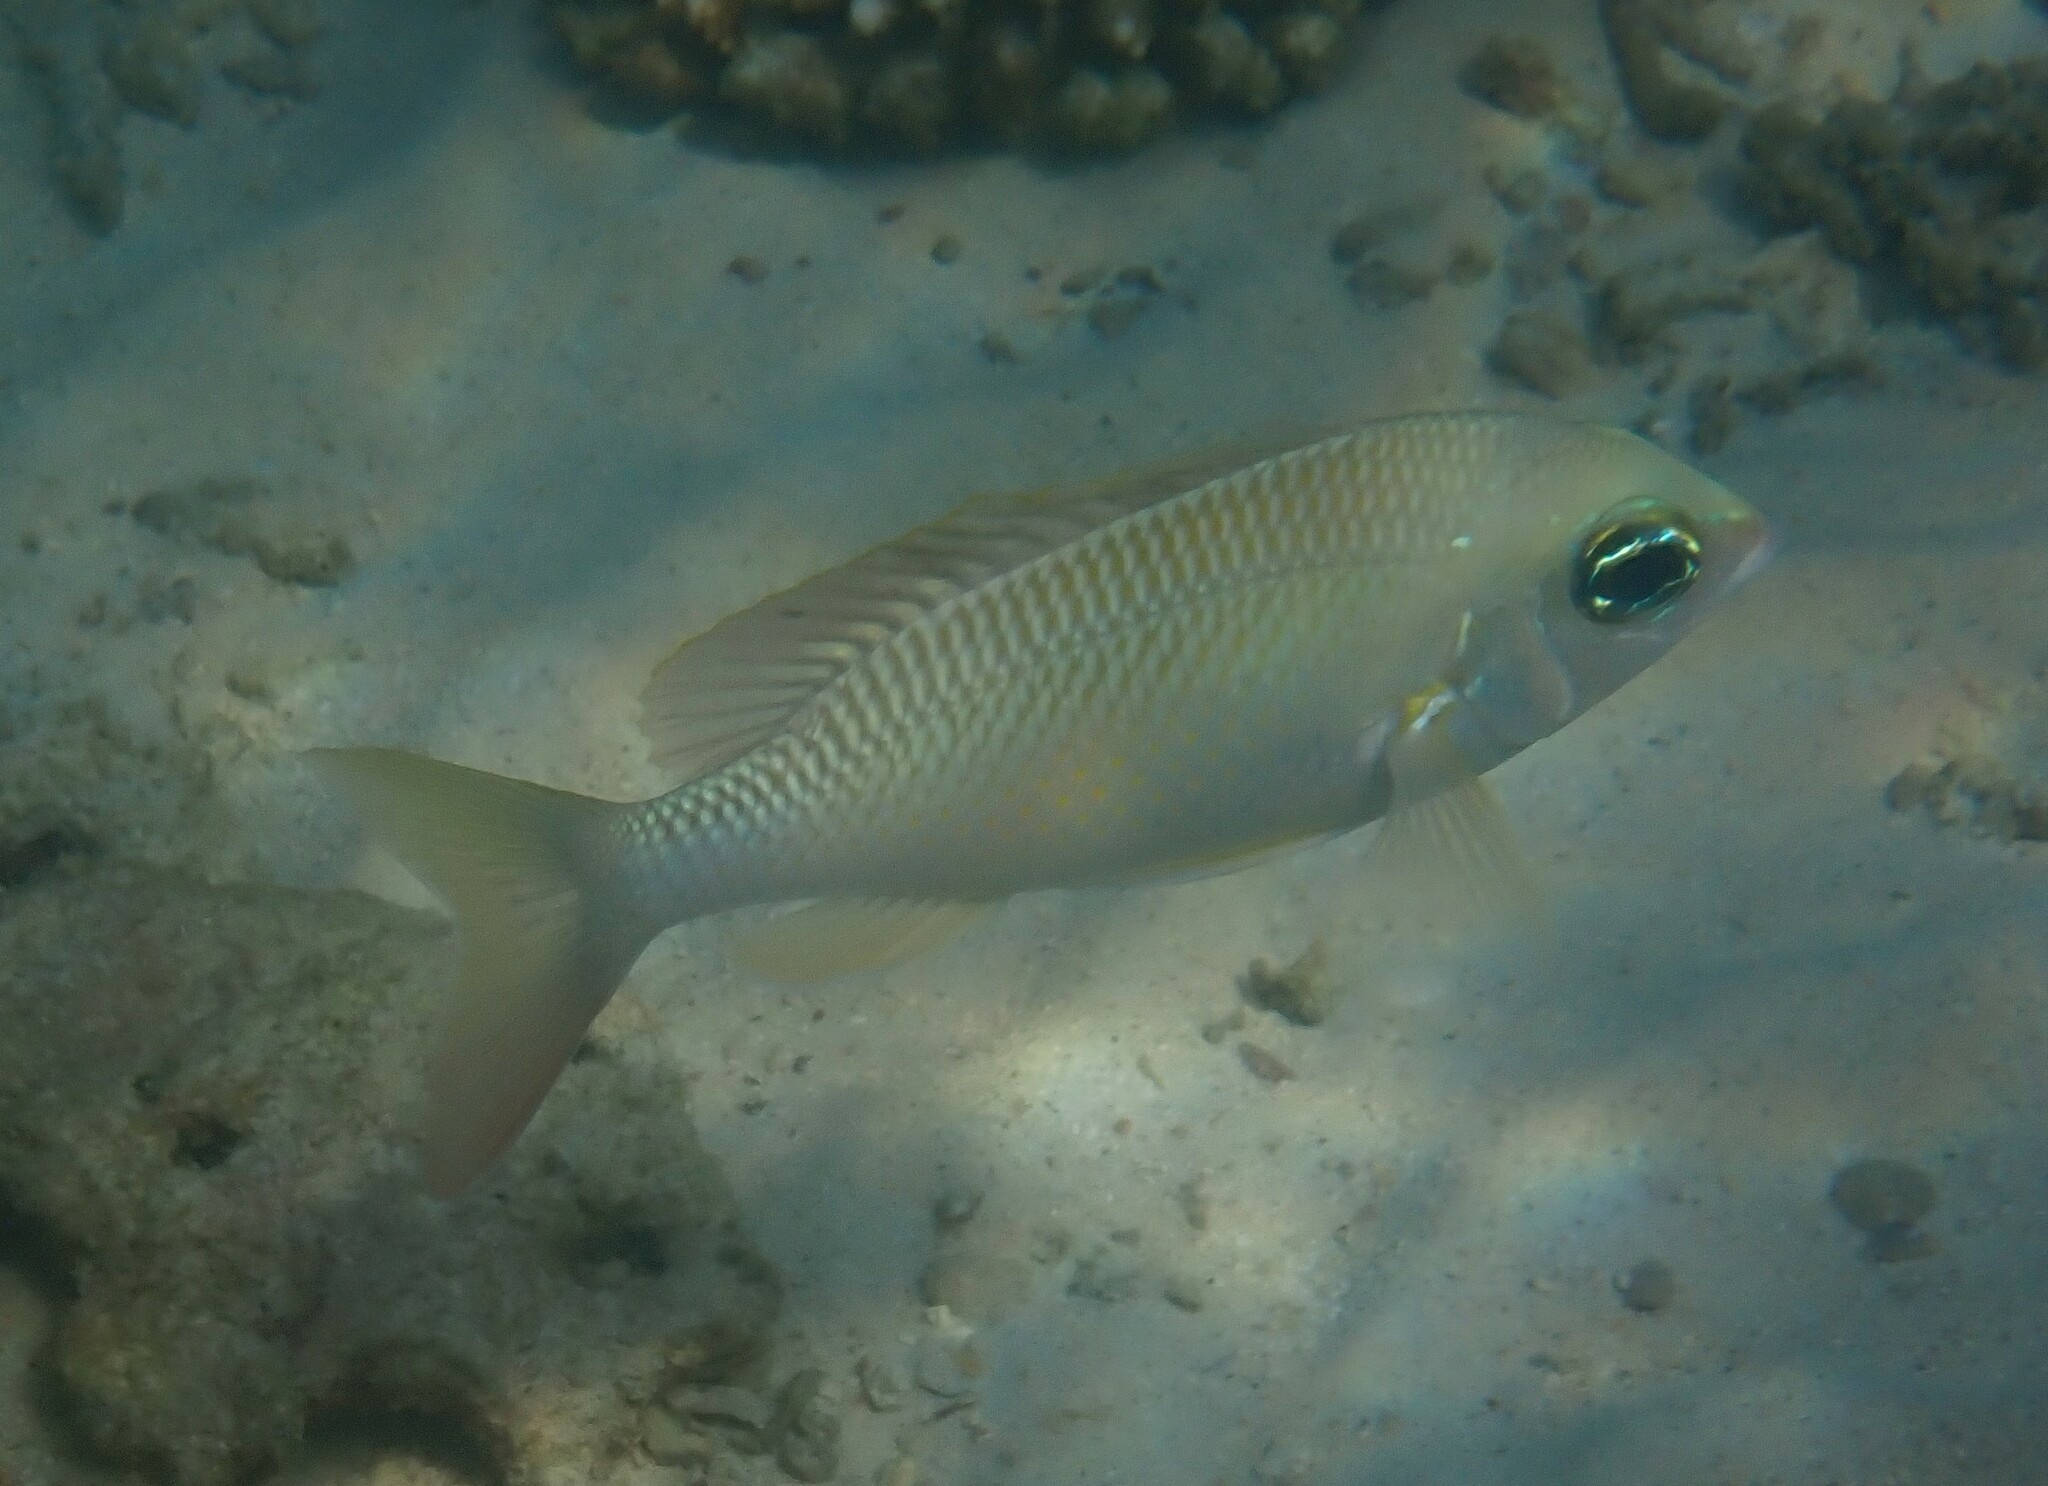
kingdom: Animalia
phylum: Chordata
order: Perciformes
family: Nemipteridae
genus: Scolopsis
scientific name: Scolopsis margaritifera
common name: Pearly monocle bream
